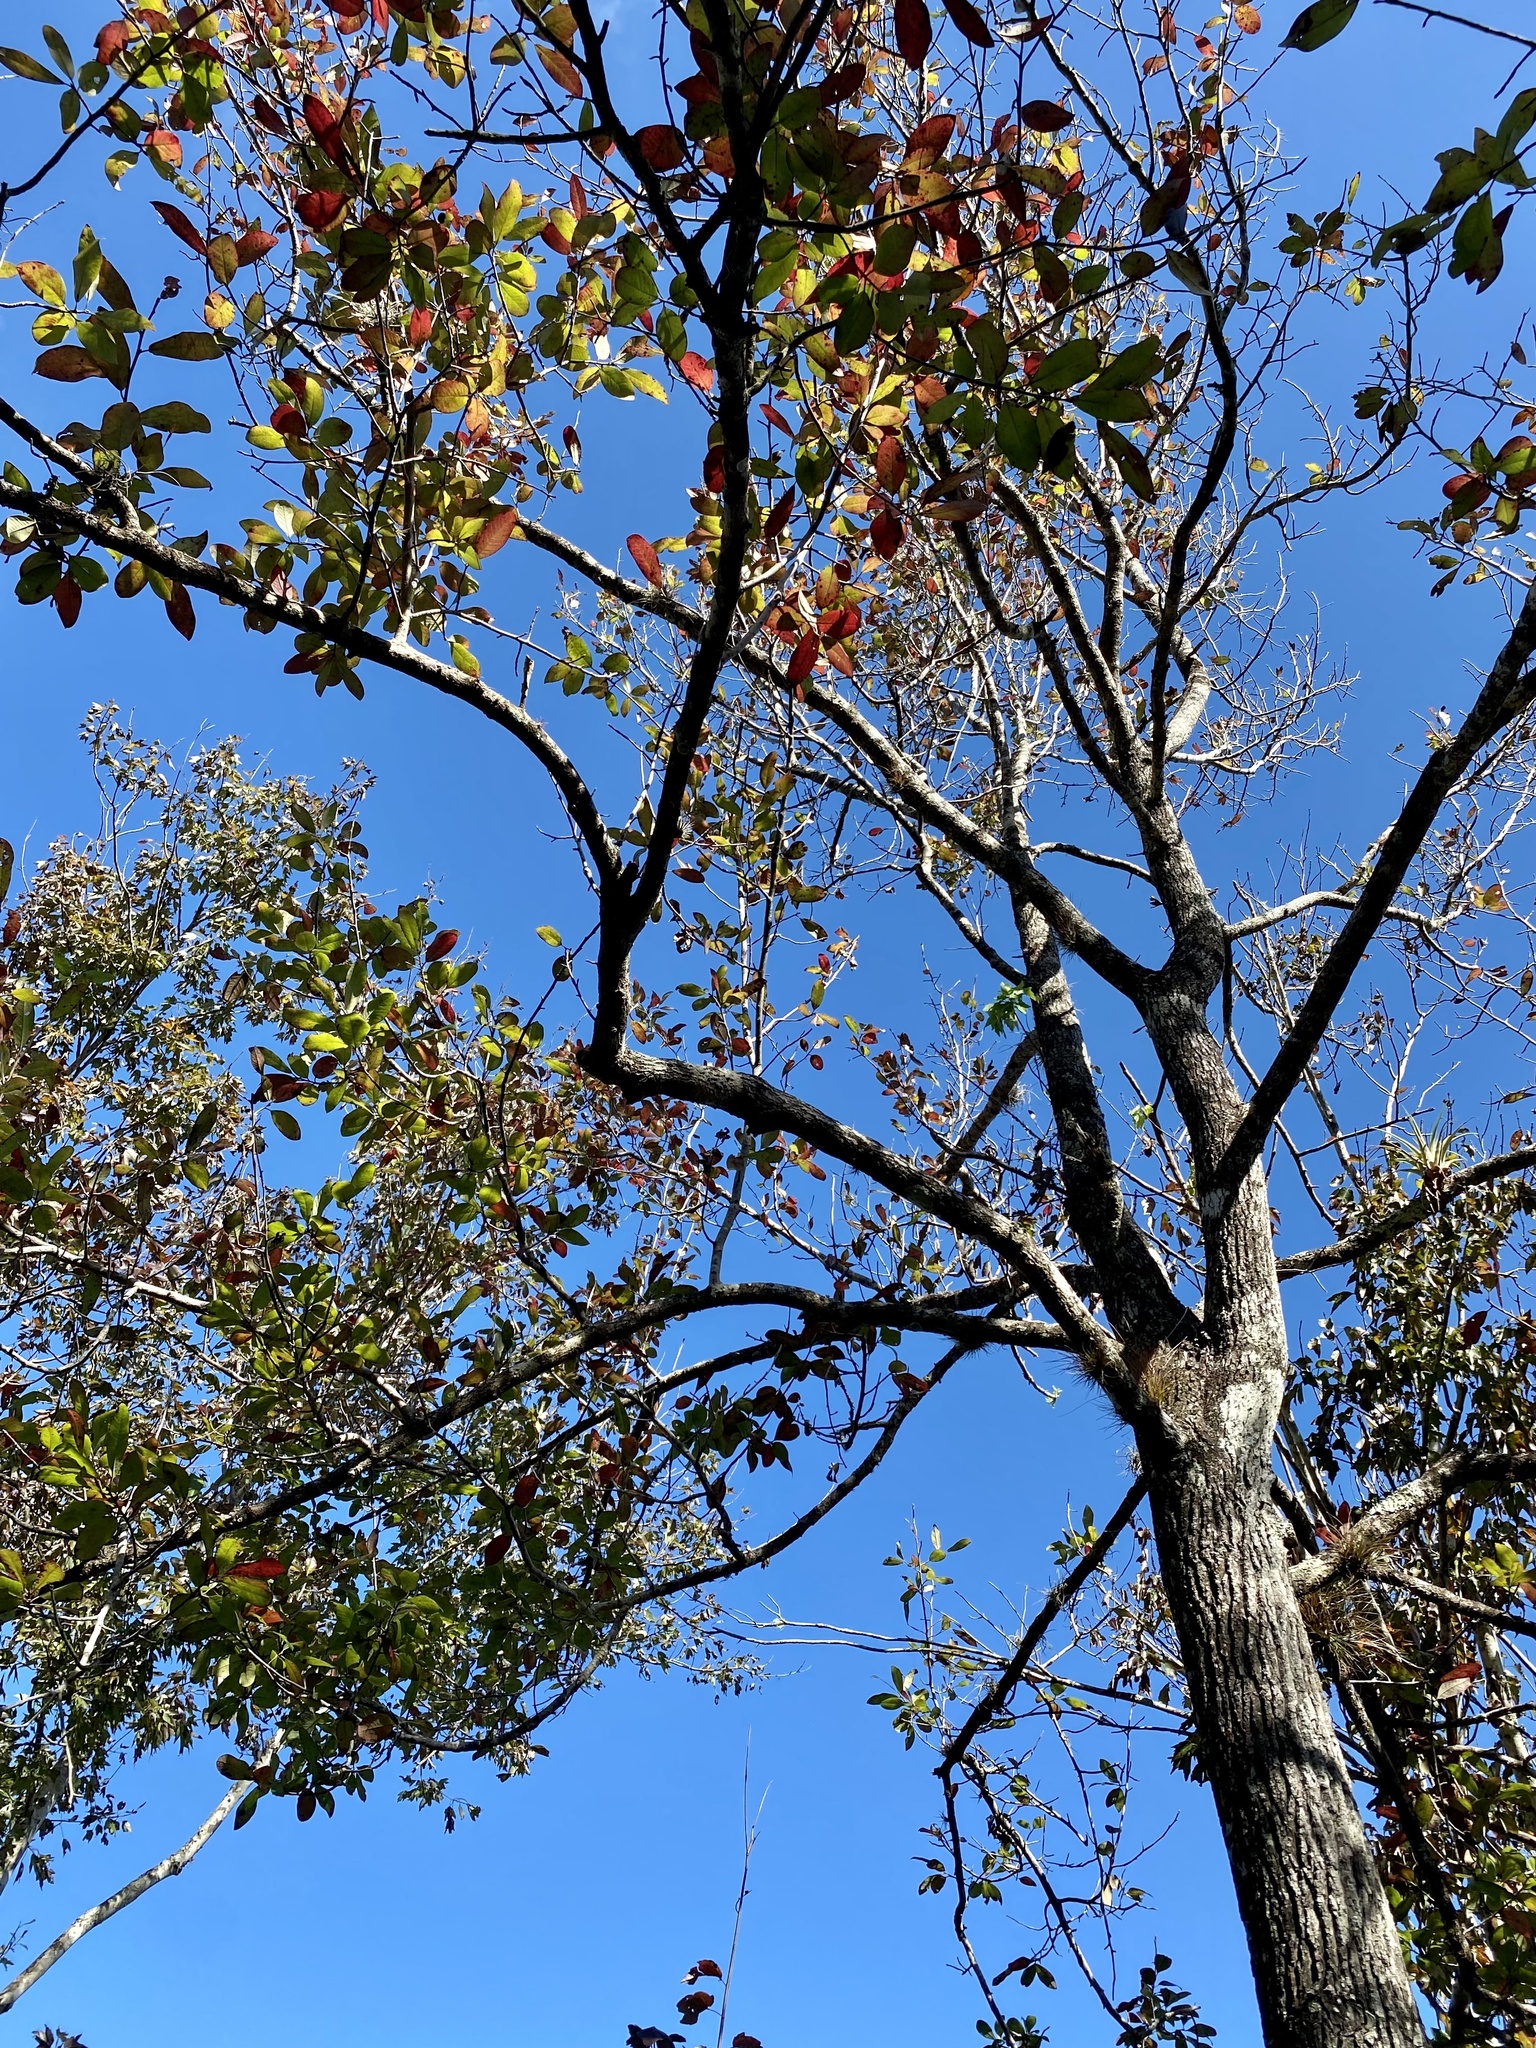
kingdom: Plantae
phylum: Tracheophyta
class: Magnoliopsida
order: Cornales
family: Nyssaceae
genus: Nyssa
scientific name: Nyssa biflora
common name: Swamp blackgum
